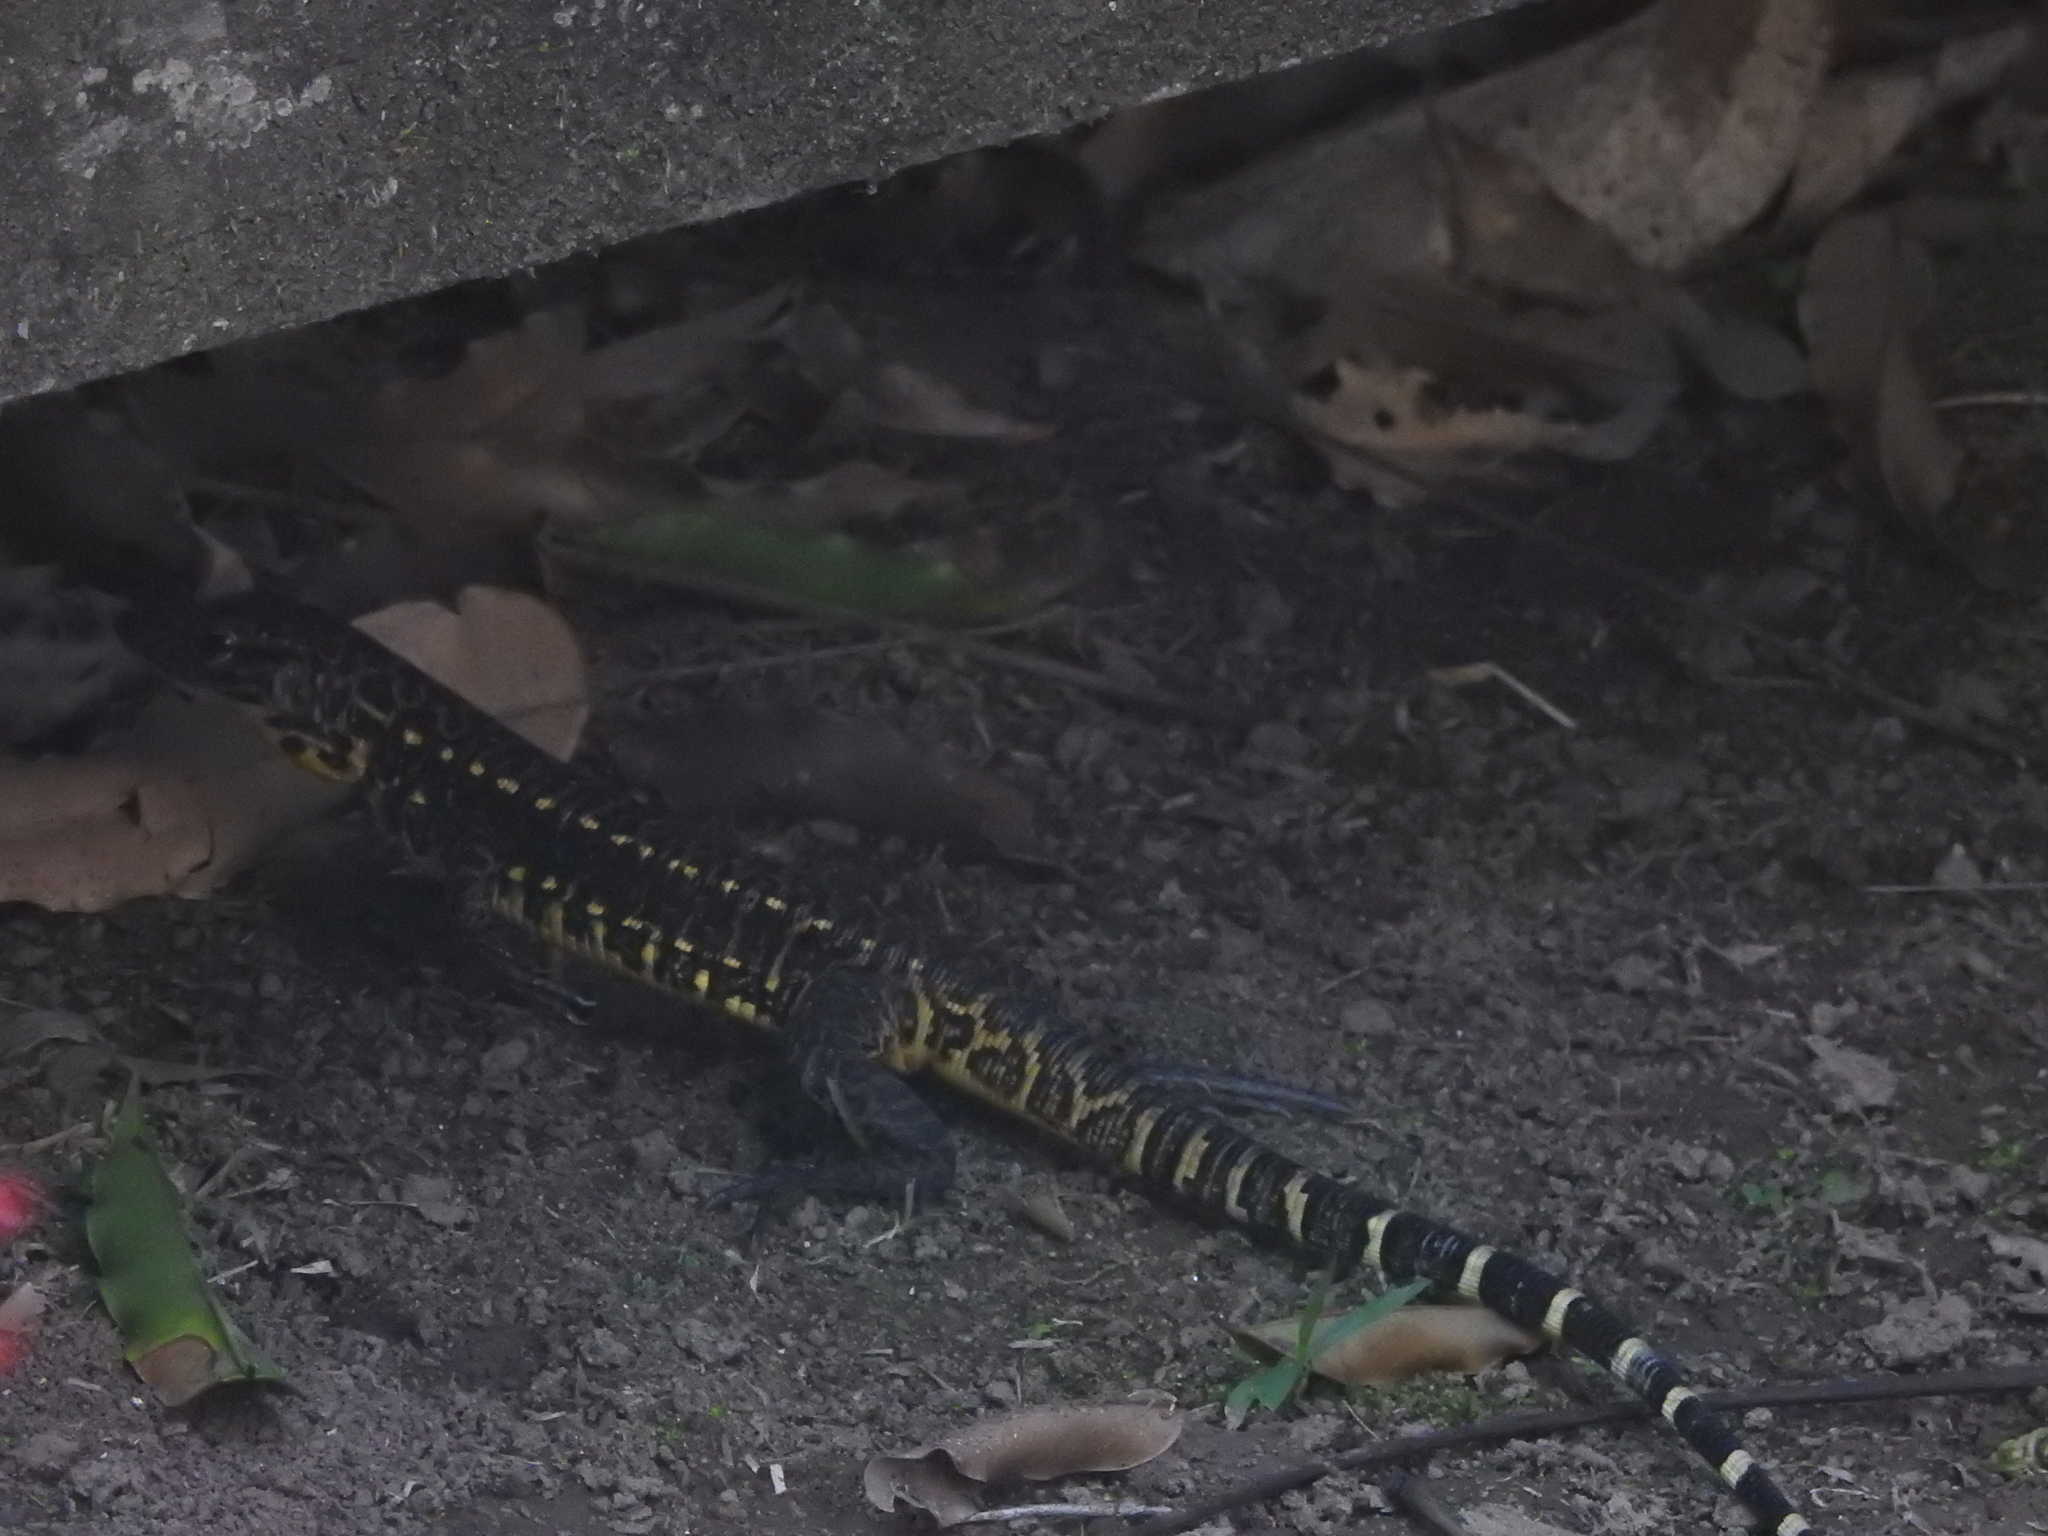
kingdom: Animalia
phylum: Chordata
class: Squamata
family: Teiidae
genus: Tupinambis
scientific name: Tupinambis cuzcoensis
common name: Cusco tegu lizard
